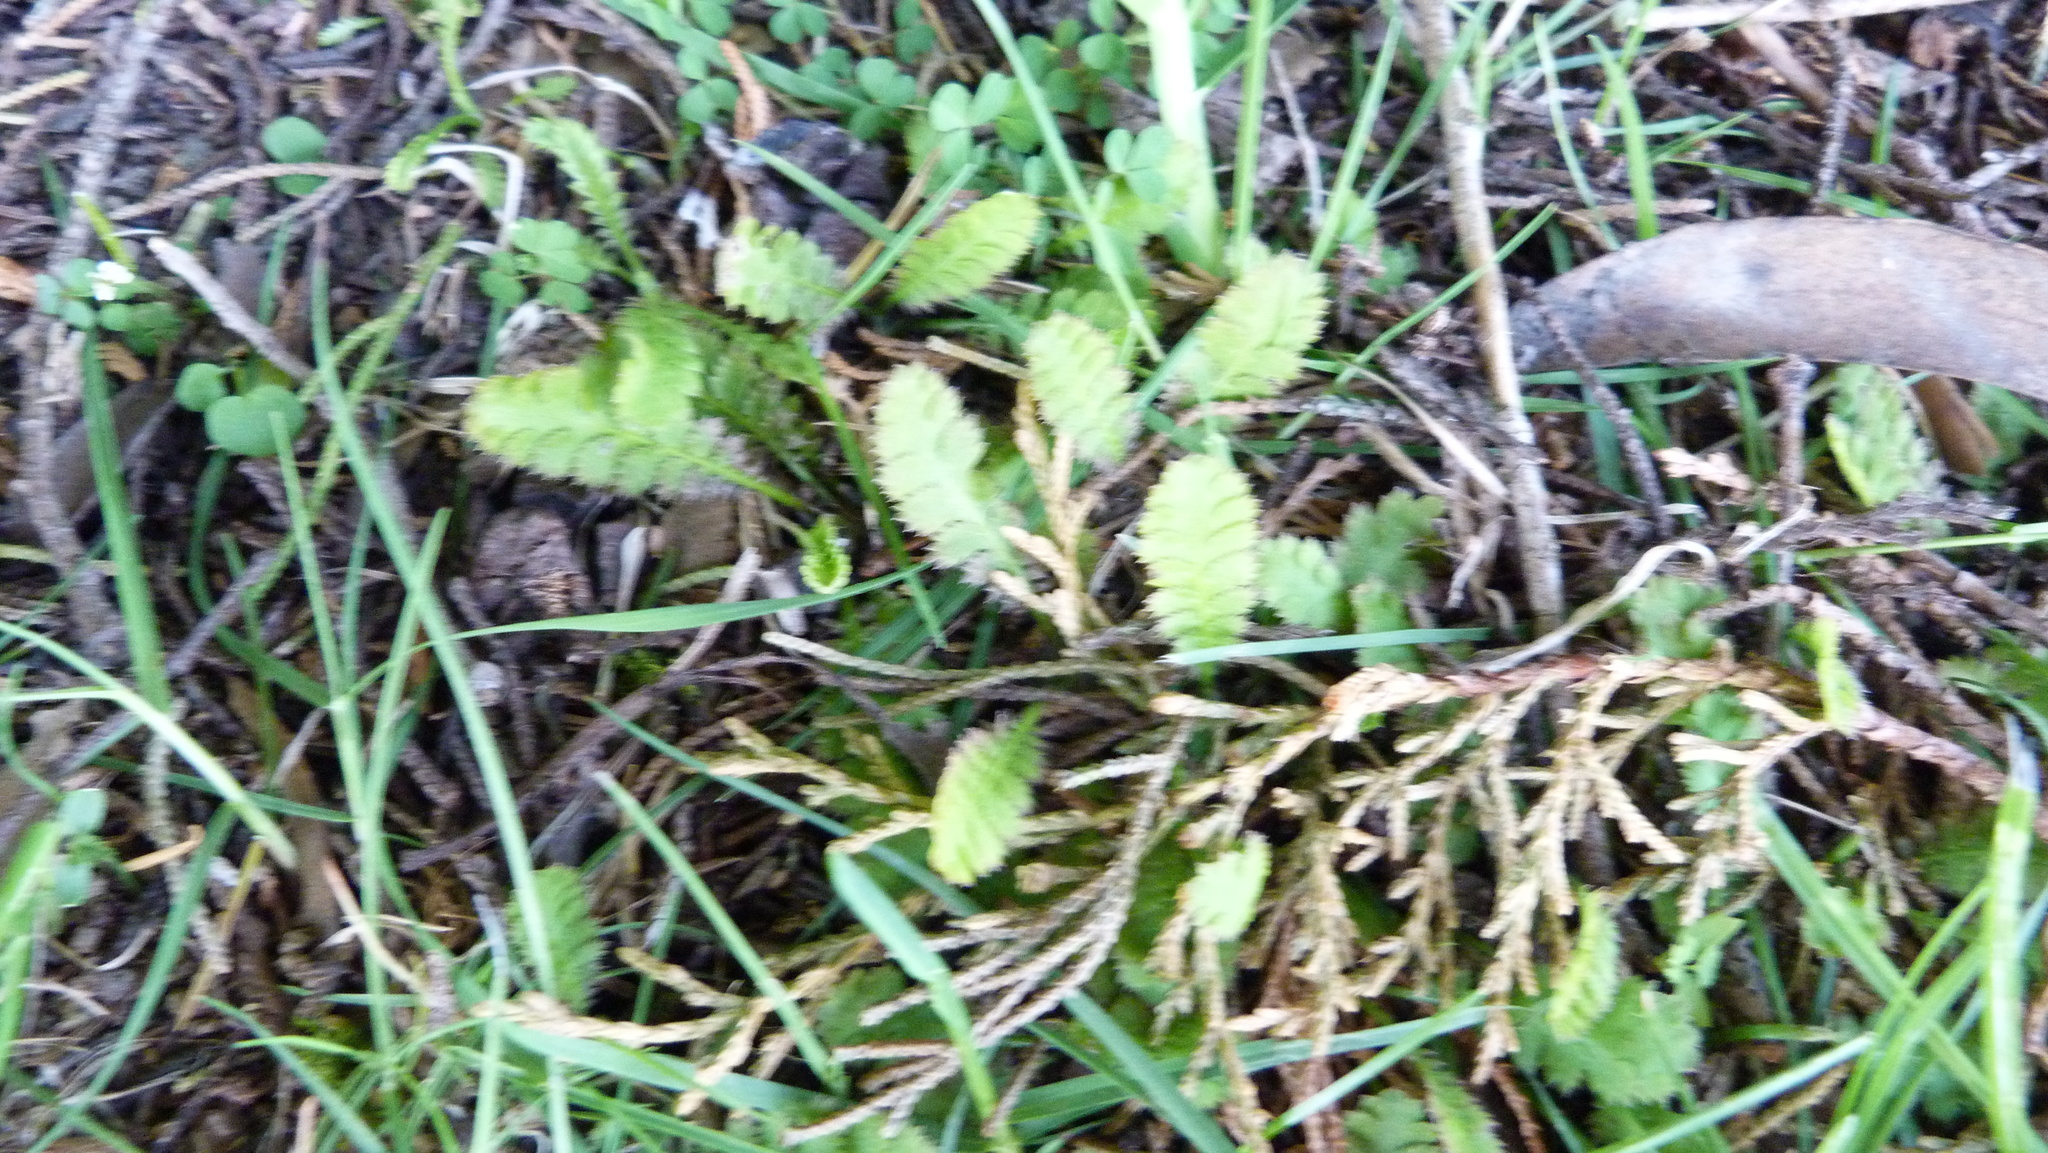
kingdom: Plantae
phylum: Tracheophyta
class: Magnoliopsida
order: Asterales
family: Asteraceae
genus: Leptinella
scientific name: Leptinella dioica
